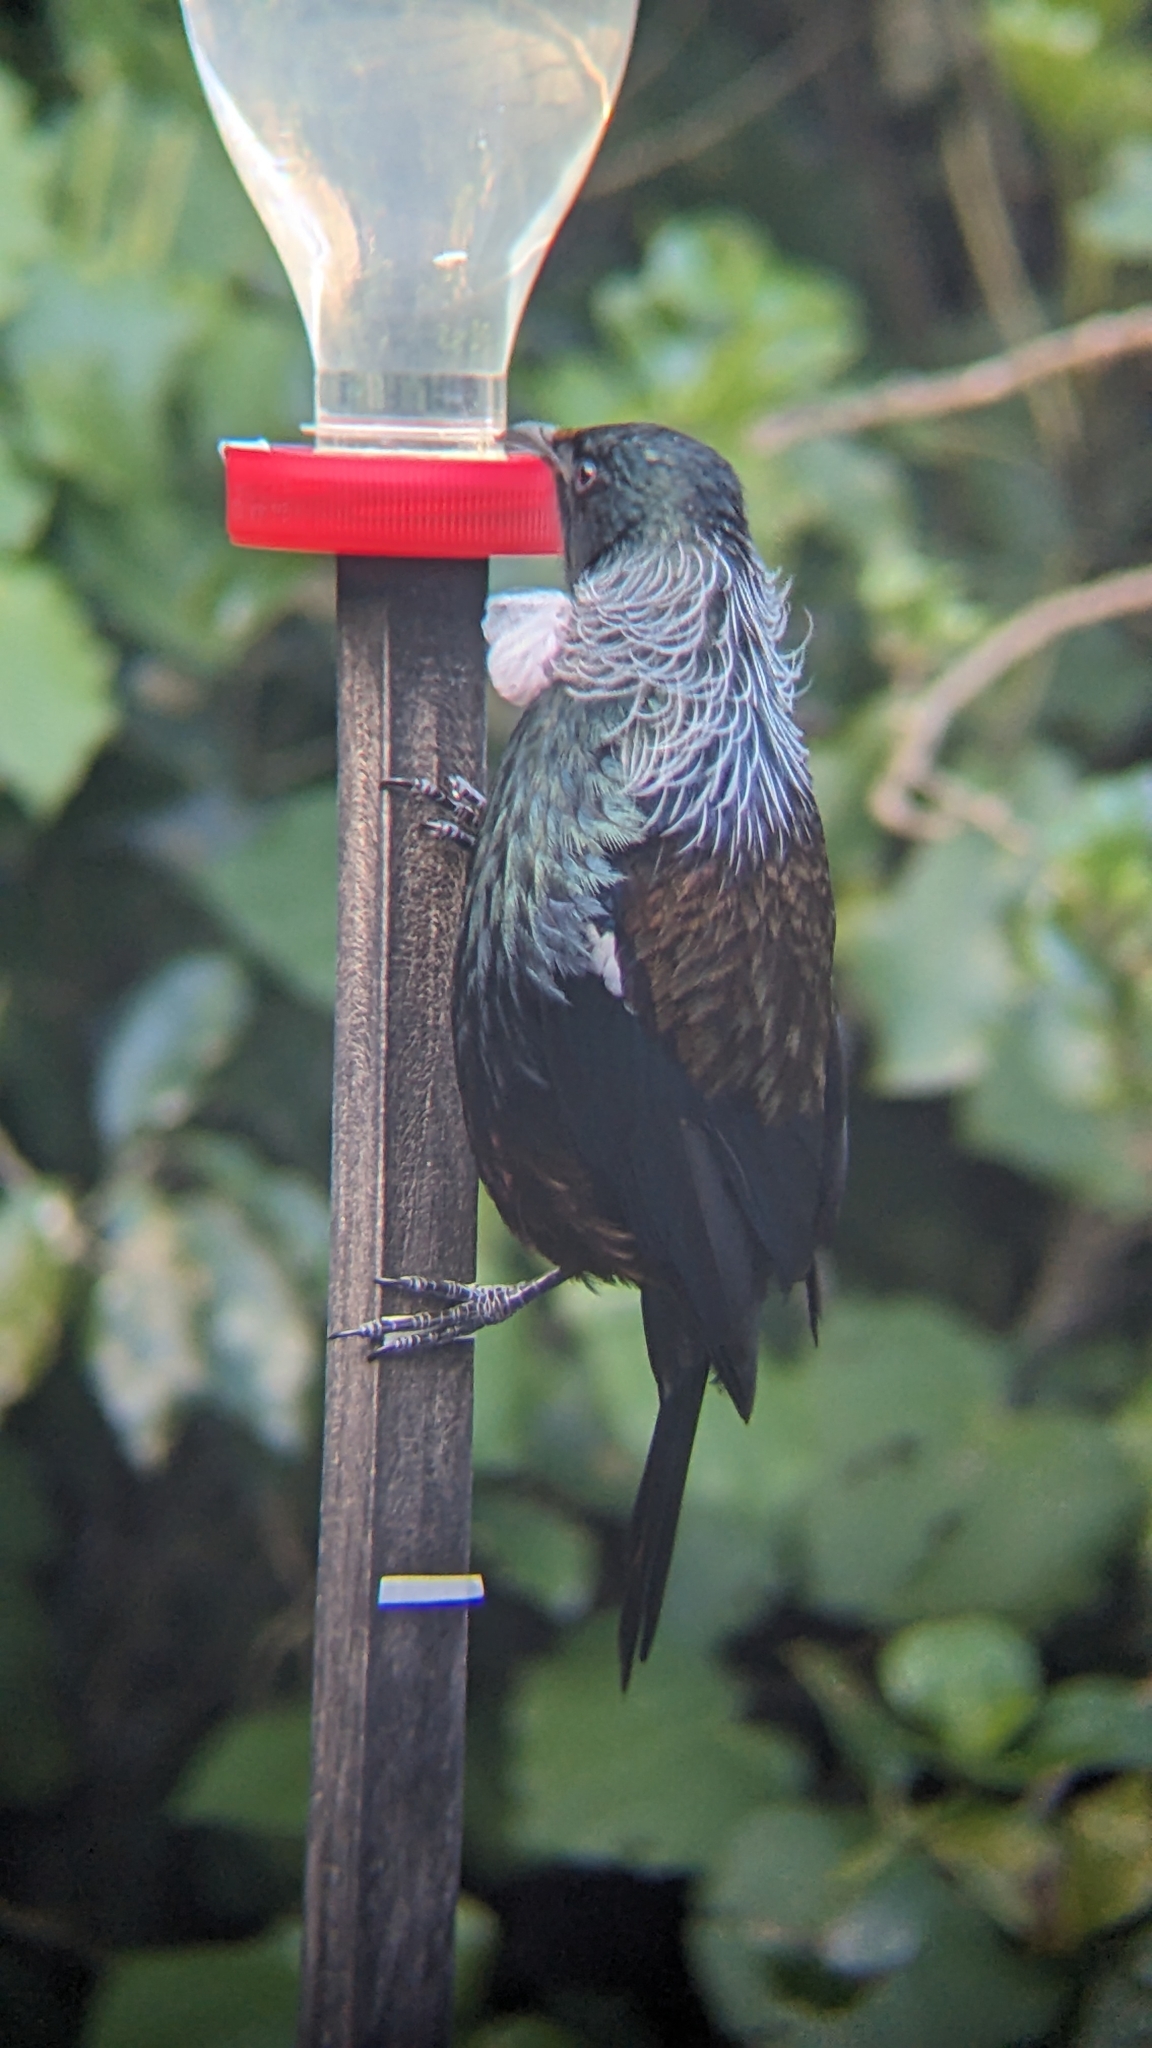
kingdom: Animalia
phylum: Chordata
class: Aves
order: Passeriformes
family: Meliphagidae
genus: Prosthemadera
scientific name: Prosthemadera novaeseelandiae
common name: Tui
